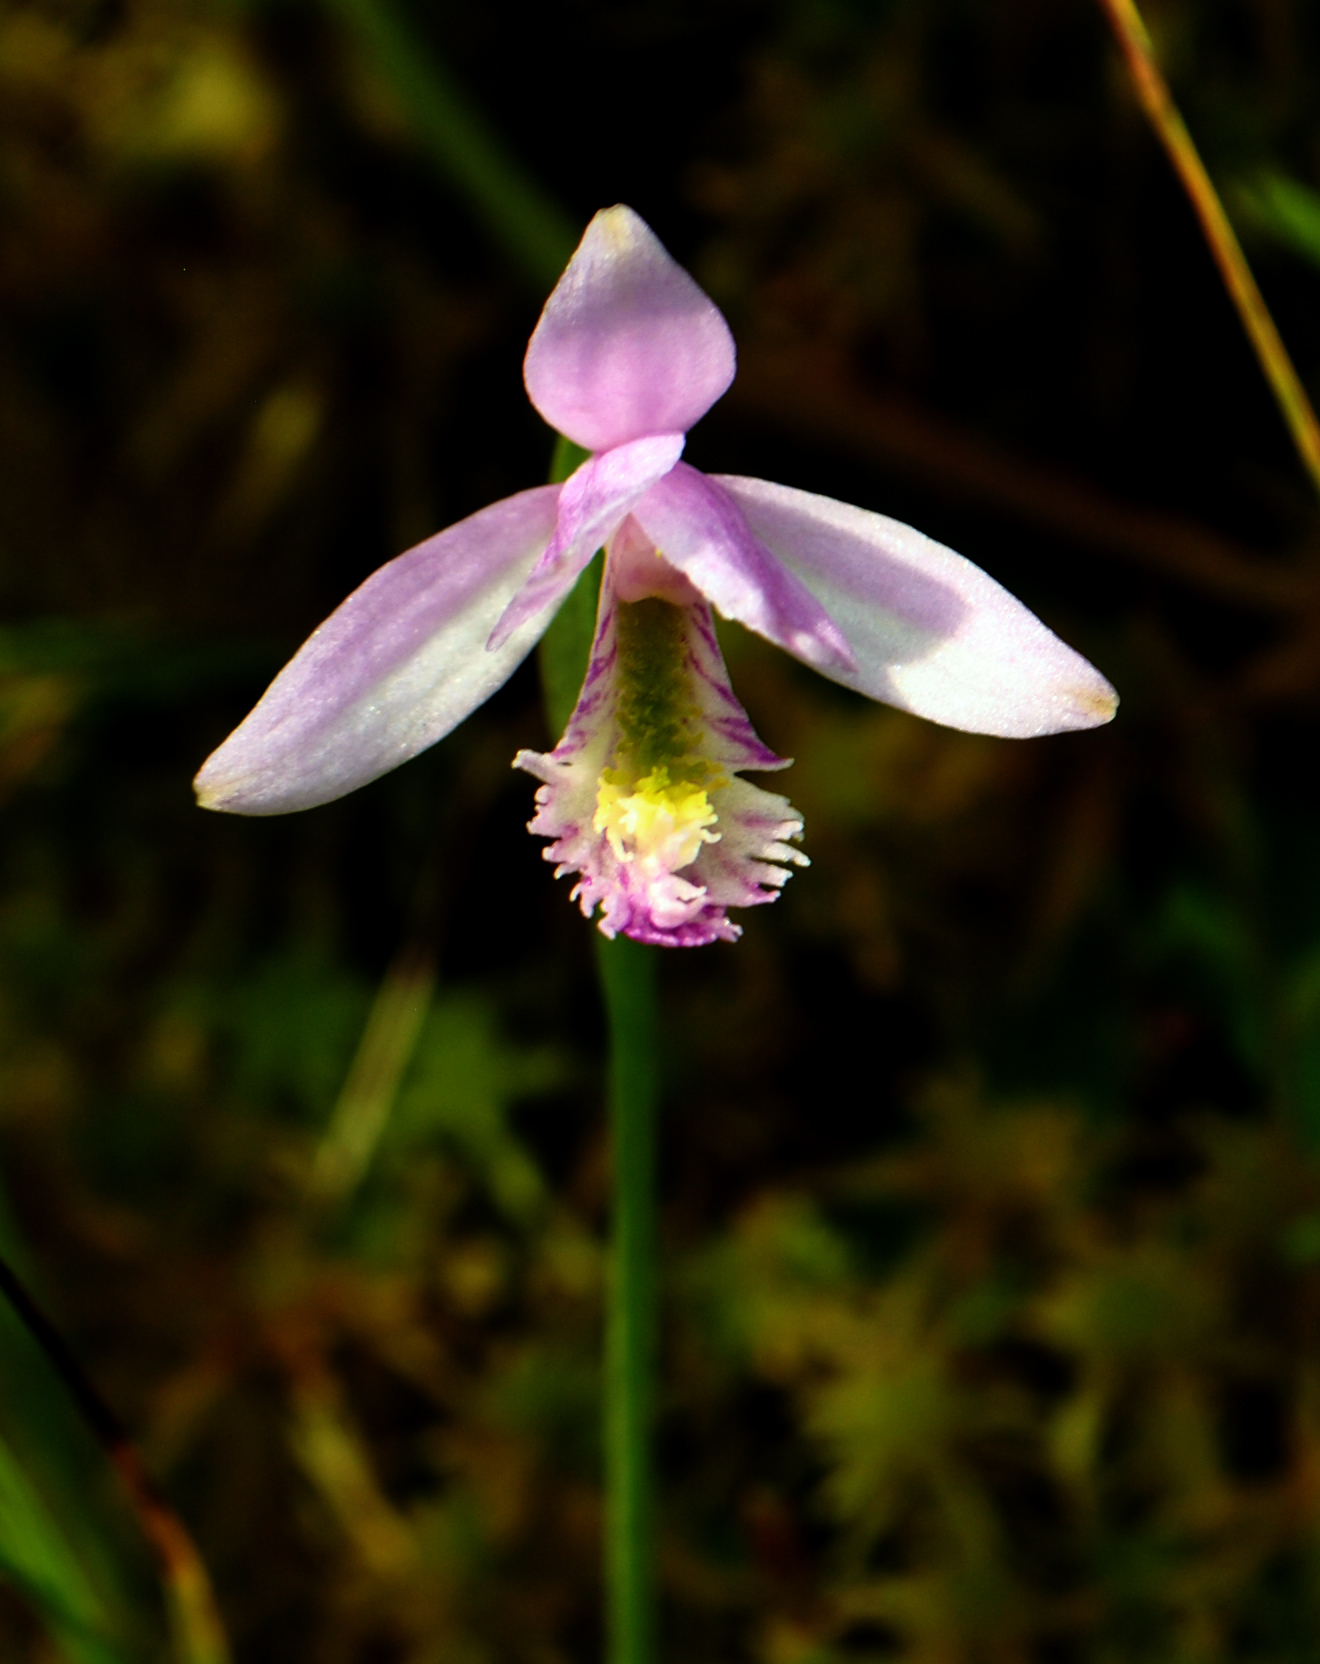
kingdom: Plantae
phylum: Tracheophyta
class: Liliopsida
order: Asparagales
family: Orchidaceae
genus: Pogonia
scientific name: Pogonia ophioglossoides
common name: Rose pogonia
